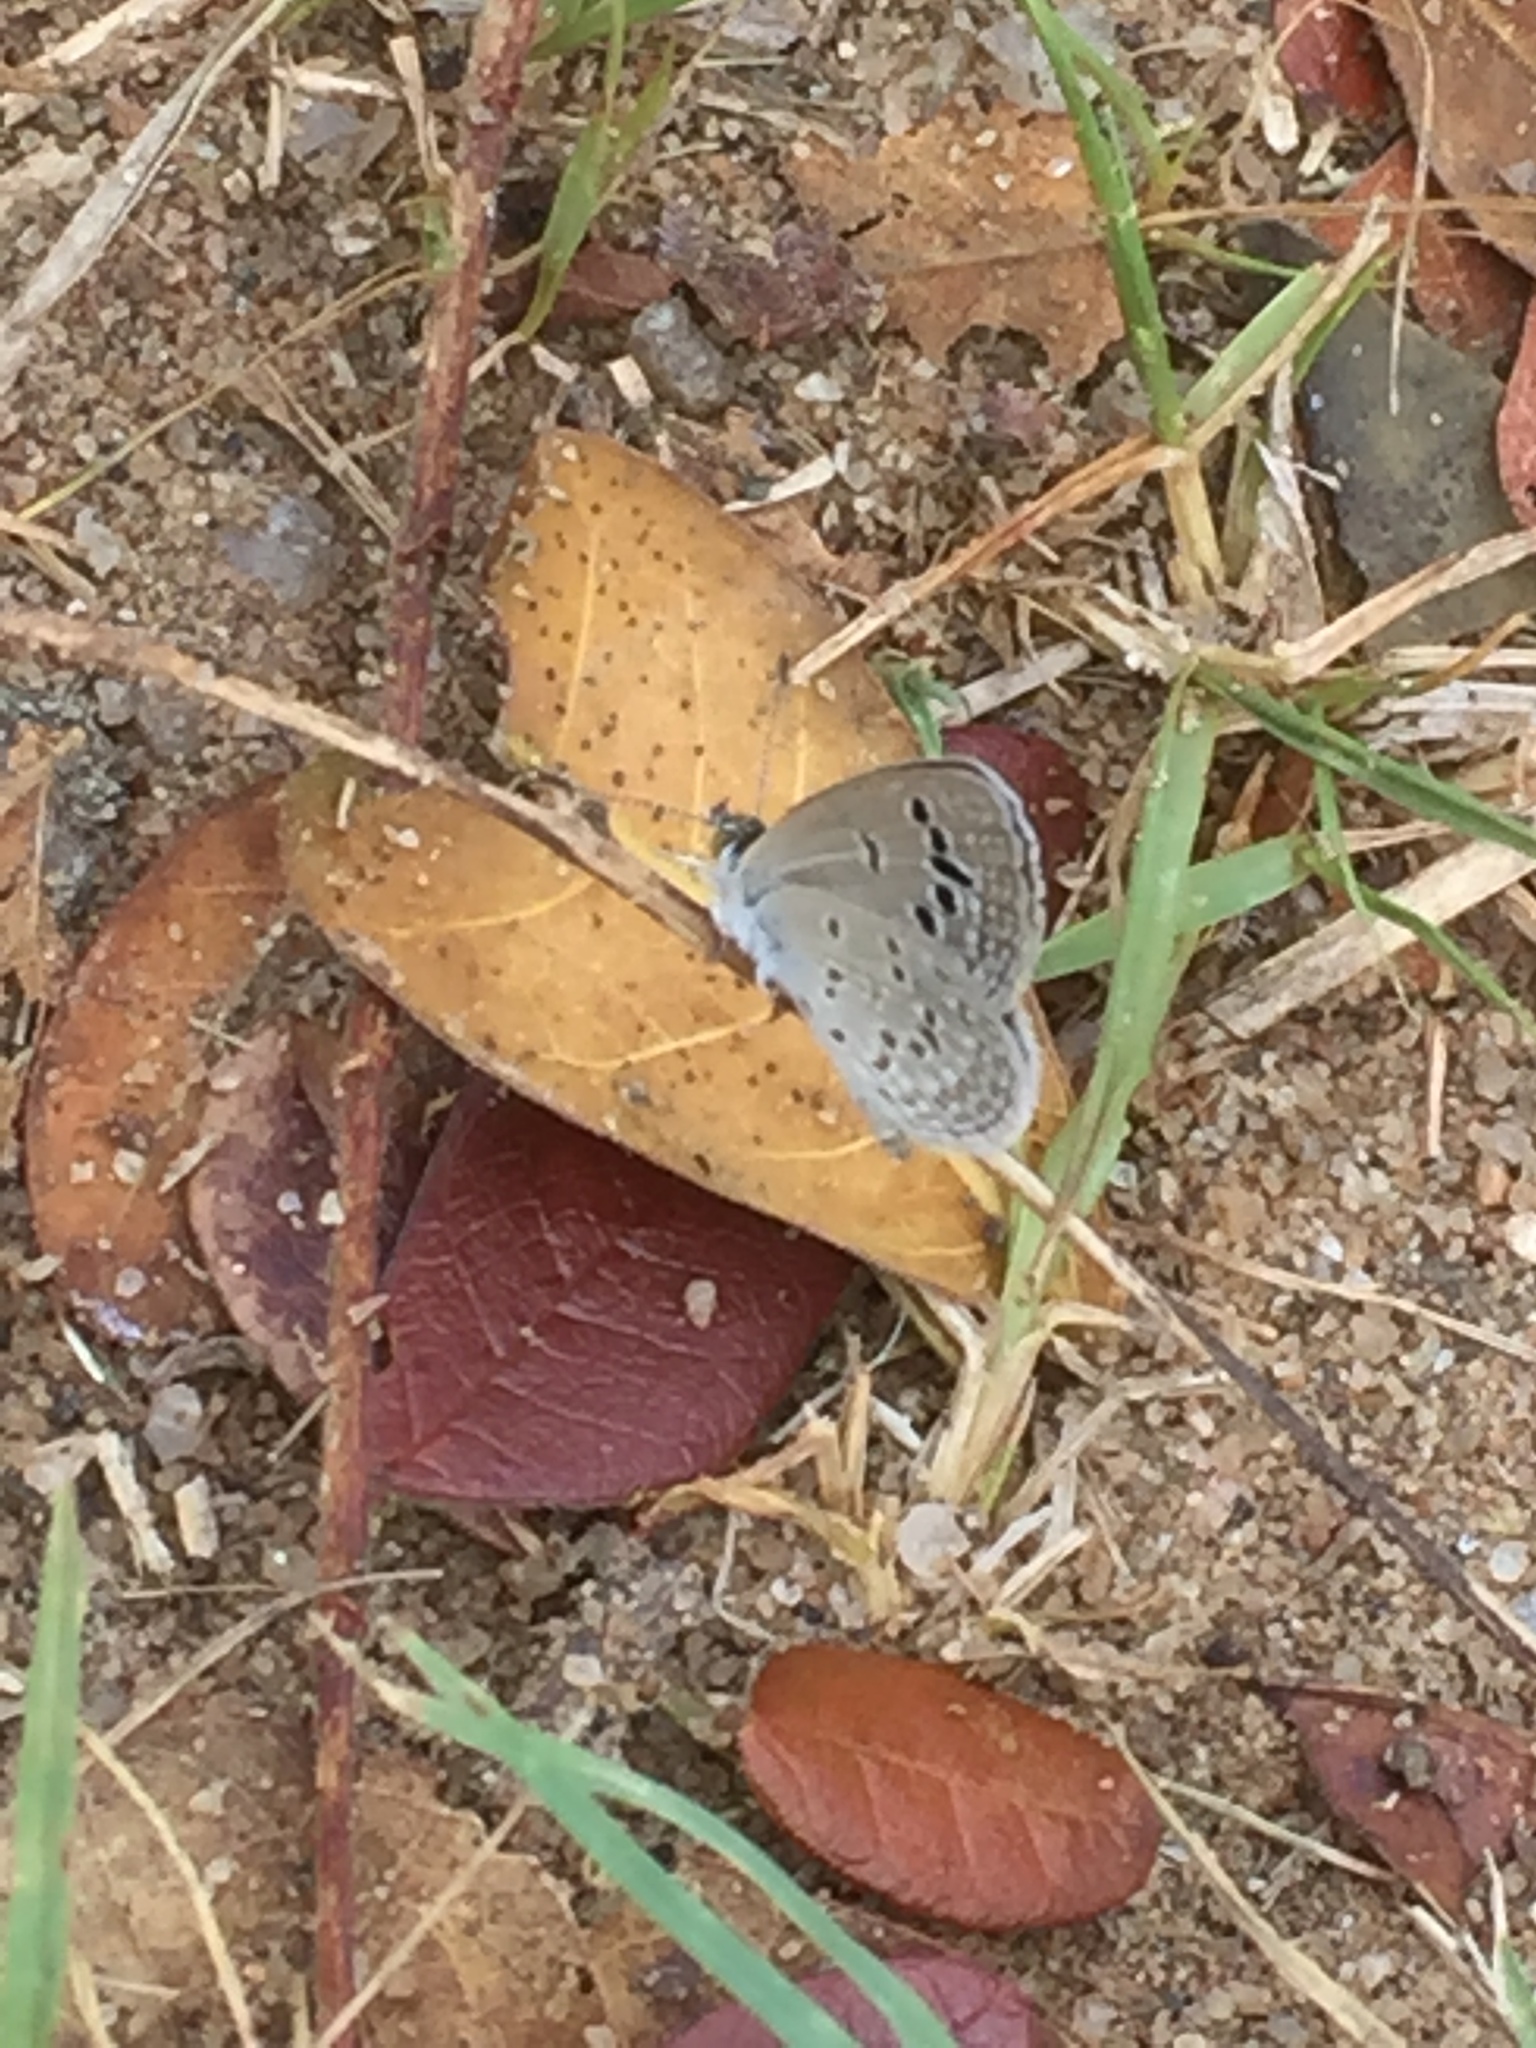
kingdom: Animalia
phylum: Arthropoda
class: Insecta
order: Lepidoptera
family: Lycaenidae
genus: Zizina
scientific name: Zizina otis
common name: Lesser grass blue
